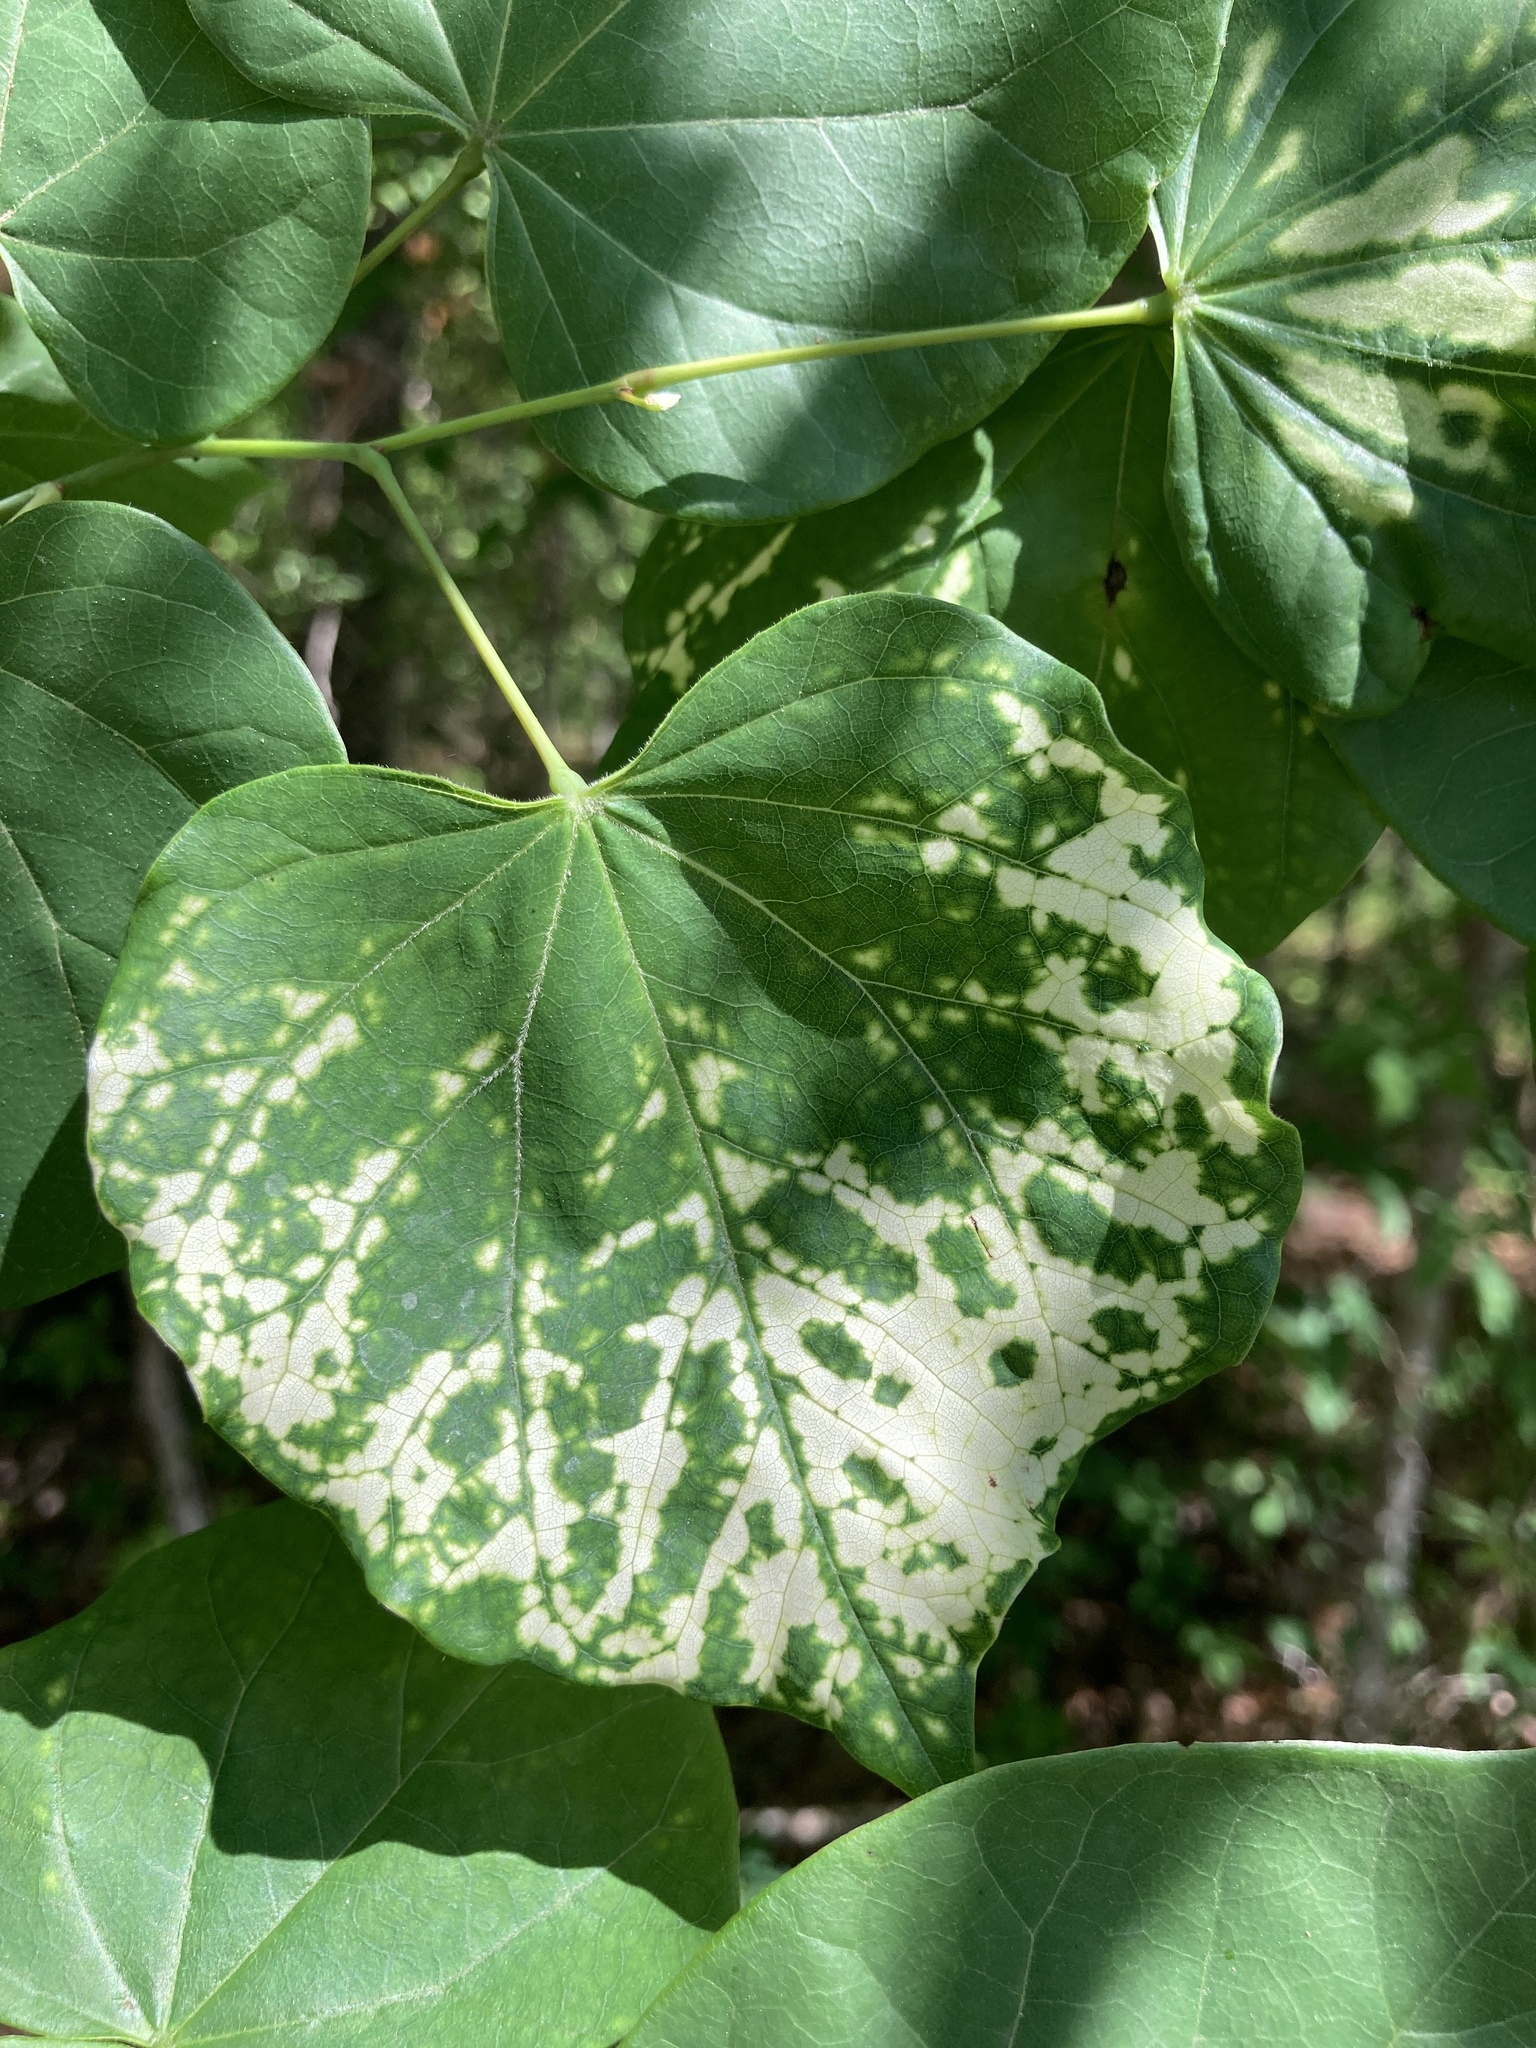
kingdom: Viruses
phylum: Negarnaviricota
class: Ellioviricetes
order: Bunyavirales
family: Fimoviridae
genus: Emaravirus
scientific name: Emaravirus cercidis
